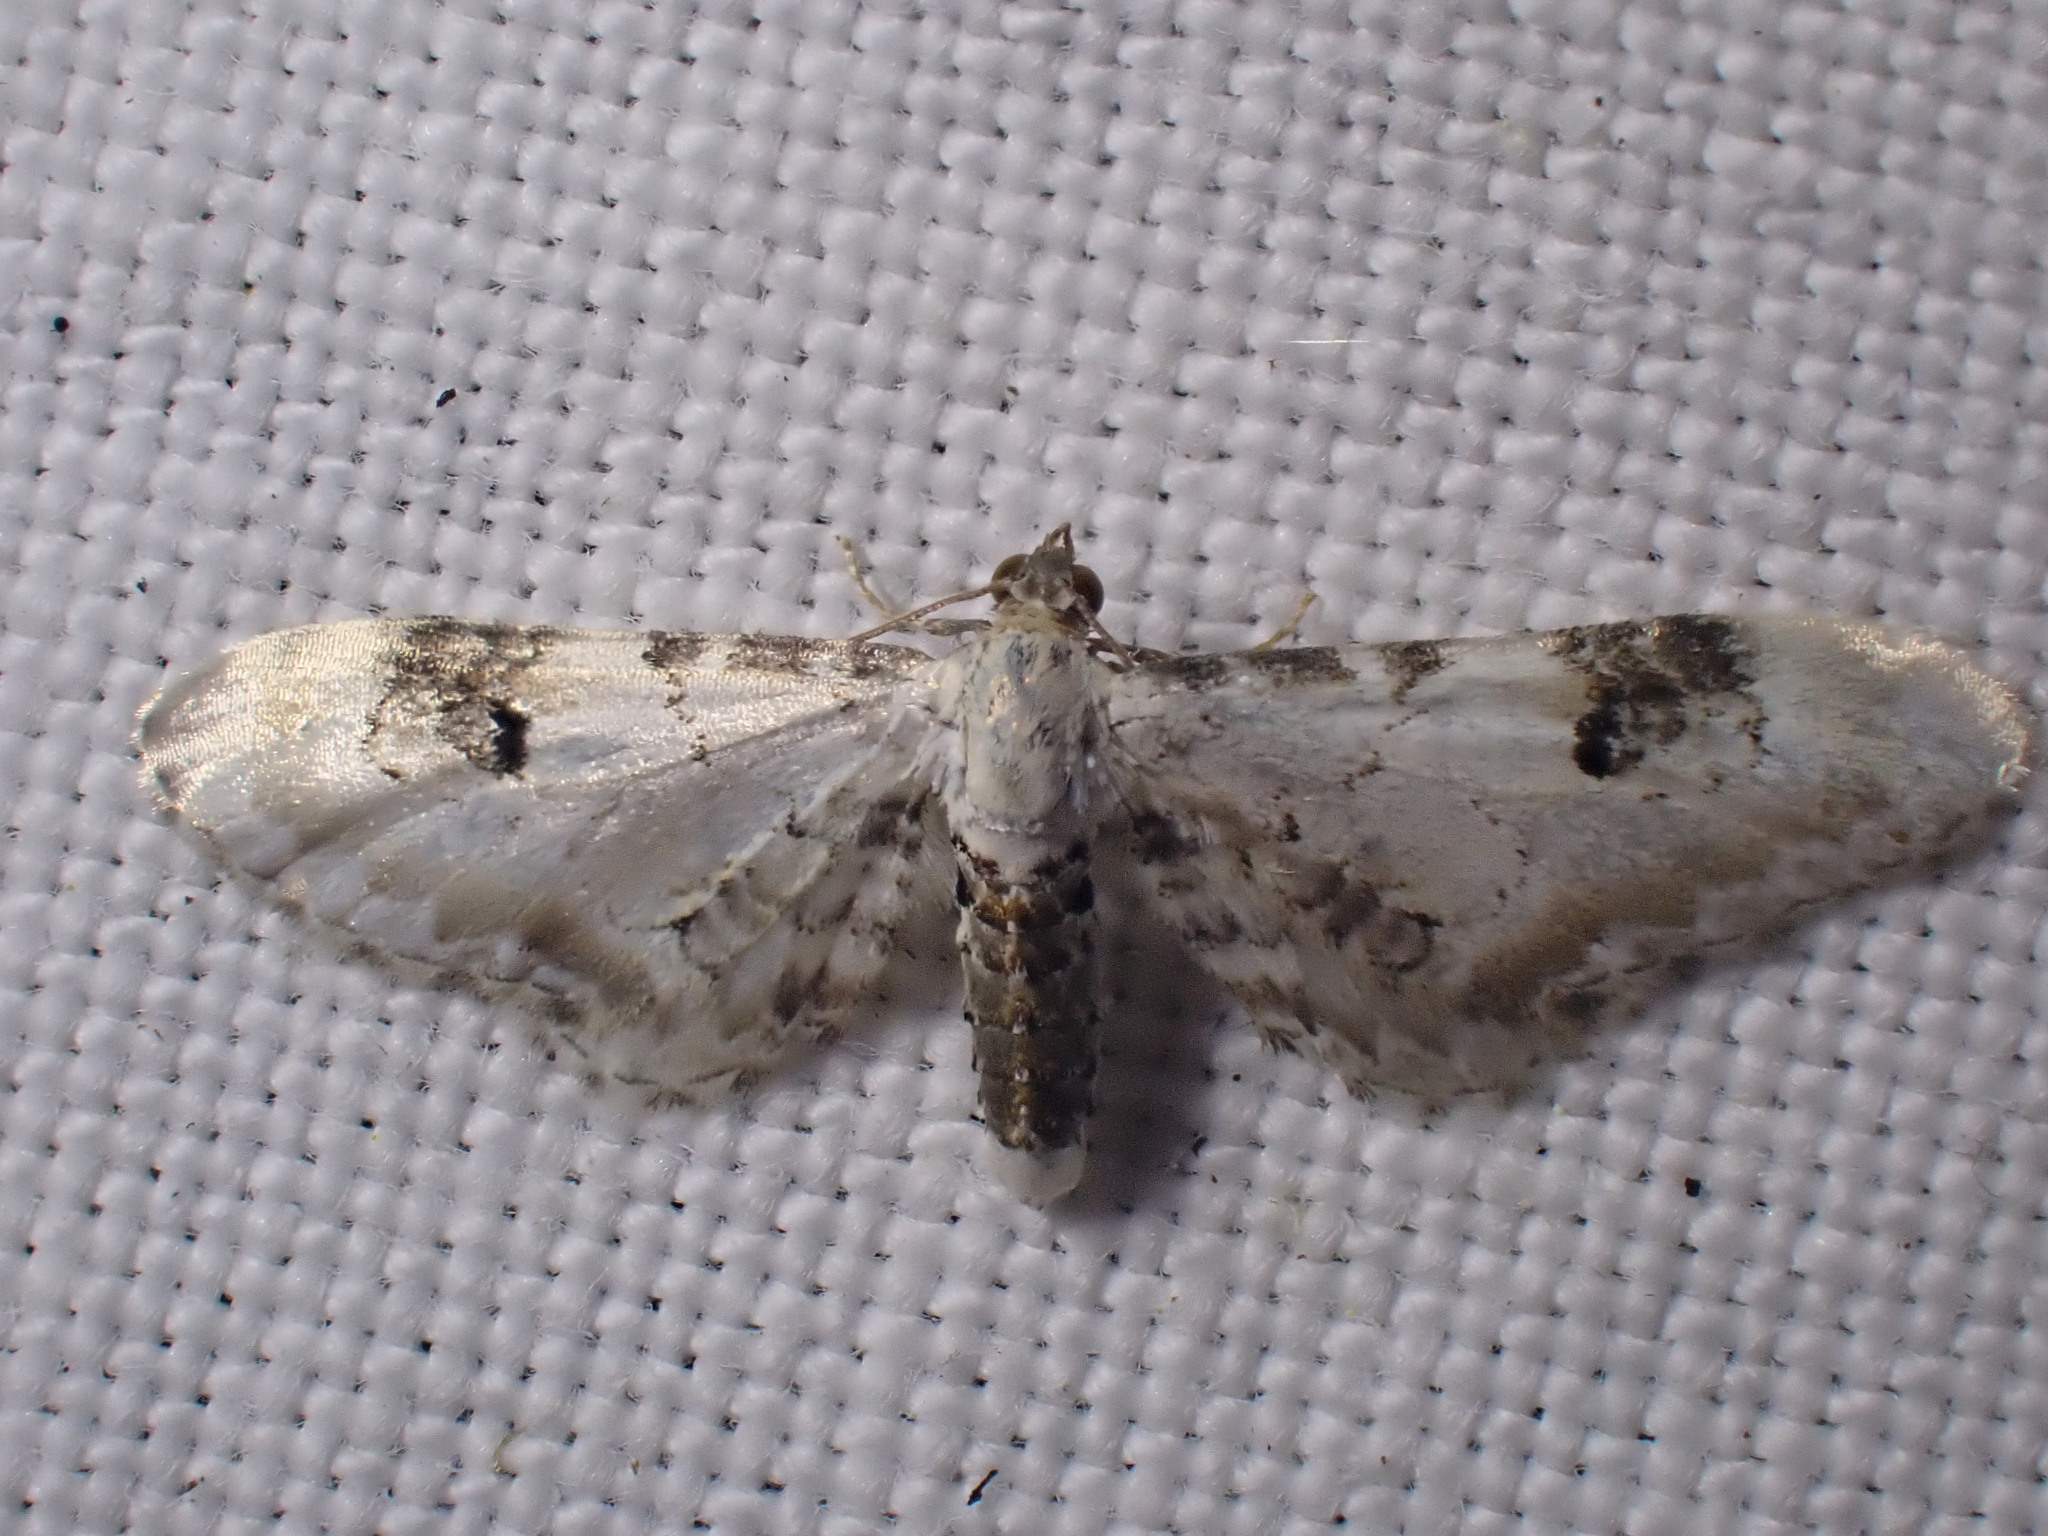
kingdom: Animalia
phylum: Arthropoda
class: Insecta
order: Lepidoptera
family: Geometridae
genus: Eupithecia
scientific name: Eupithecia centaureata
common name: Lime-speck pug
